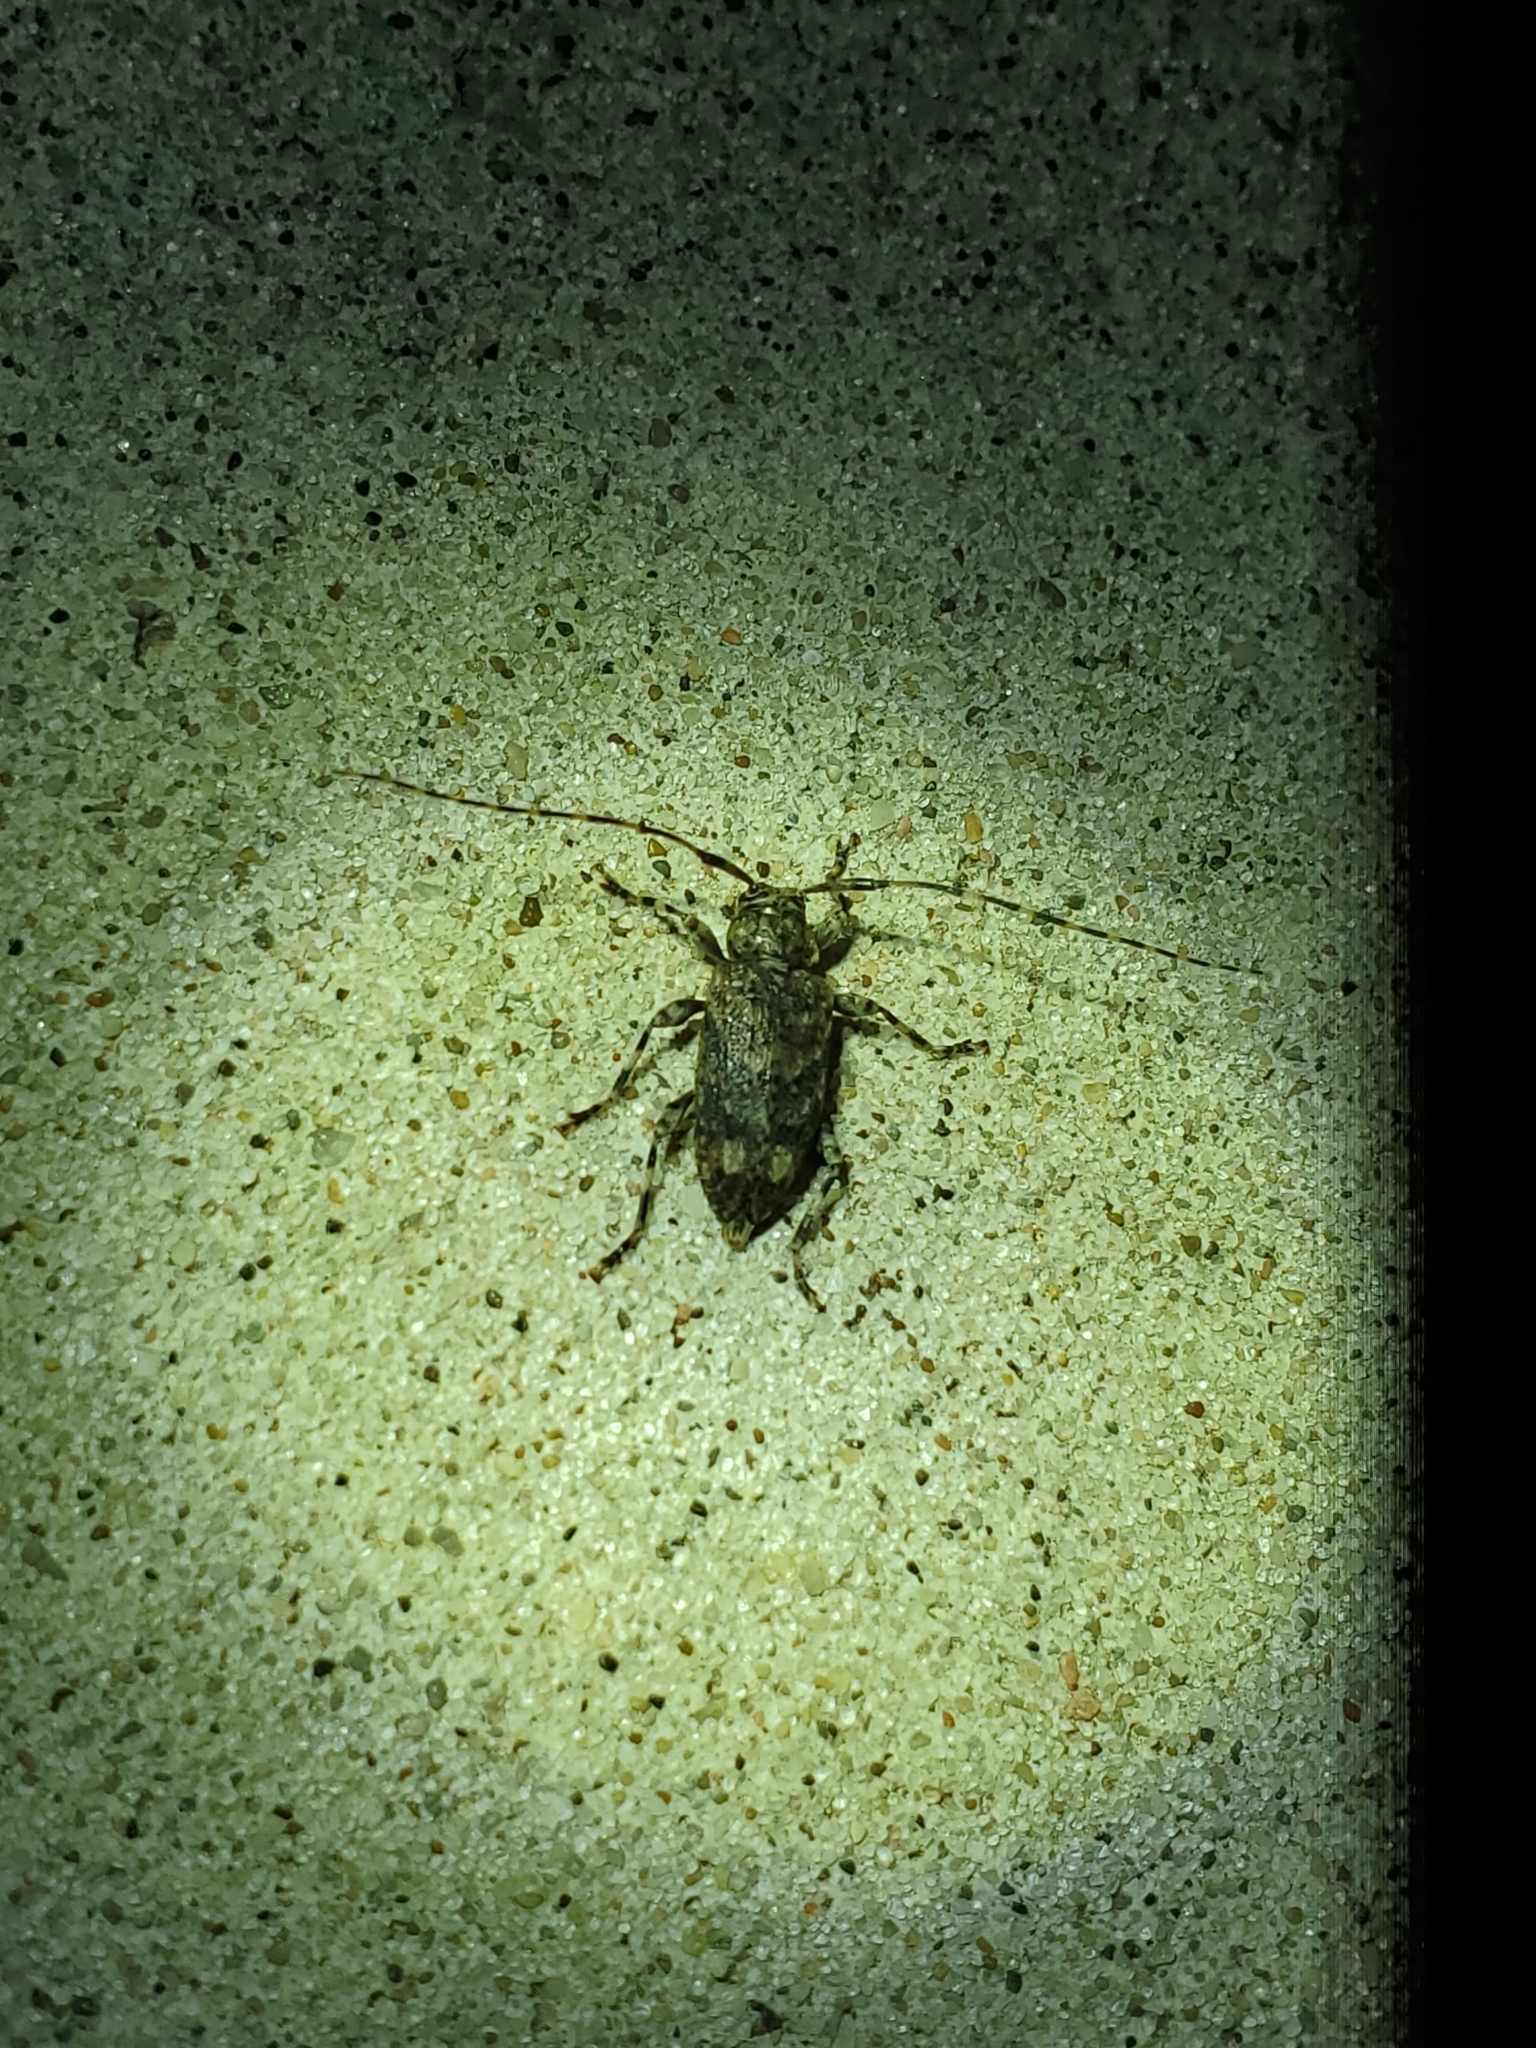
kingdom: Animalia
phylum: Arthropoda
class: Insecta
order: Coleoptera
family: Cerambycidae
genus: Astyleiopus
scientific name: Astyleiopus variegatus
